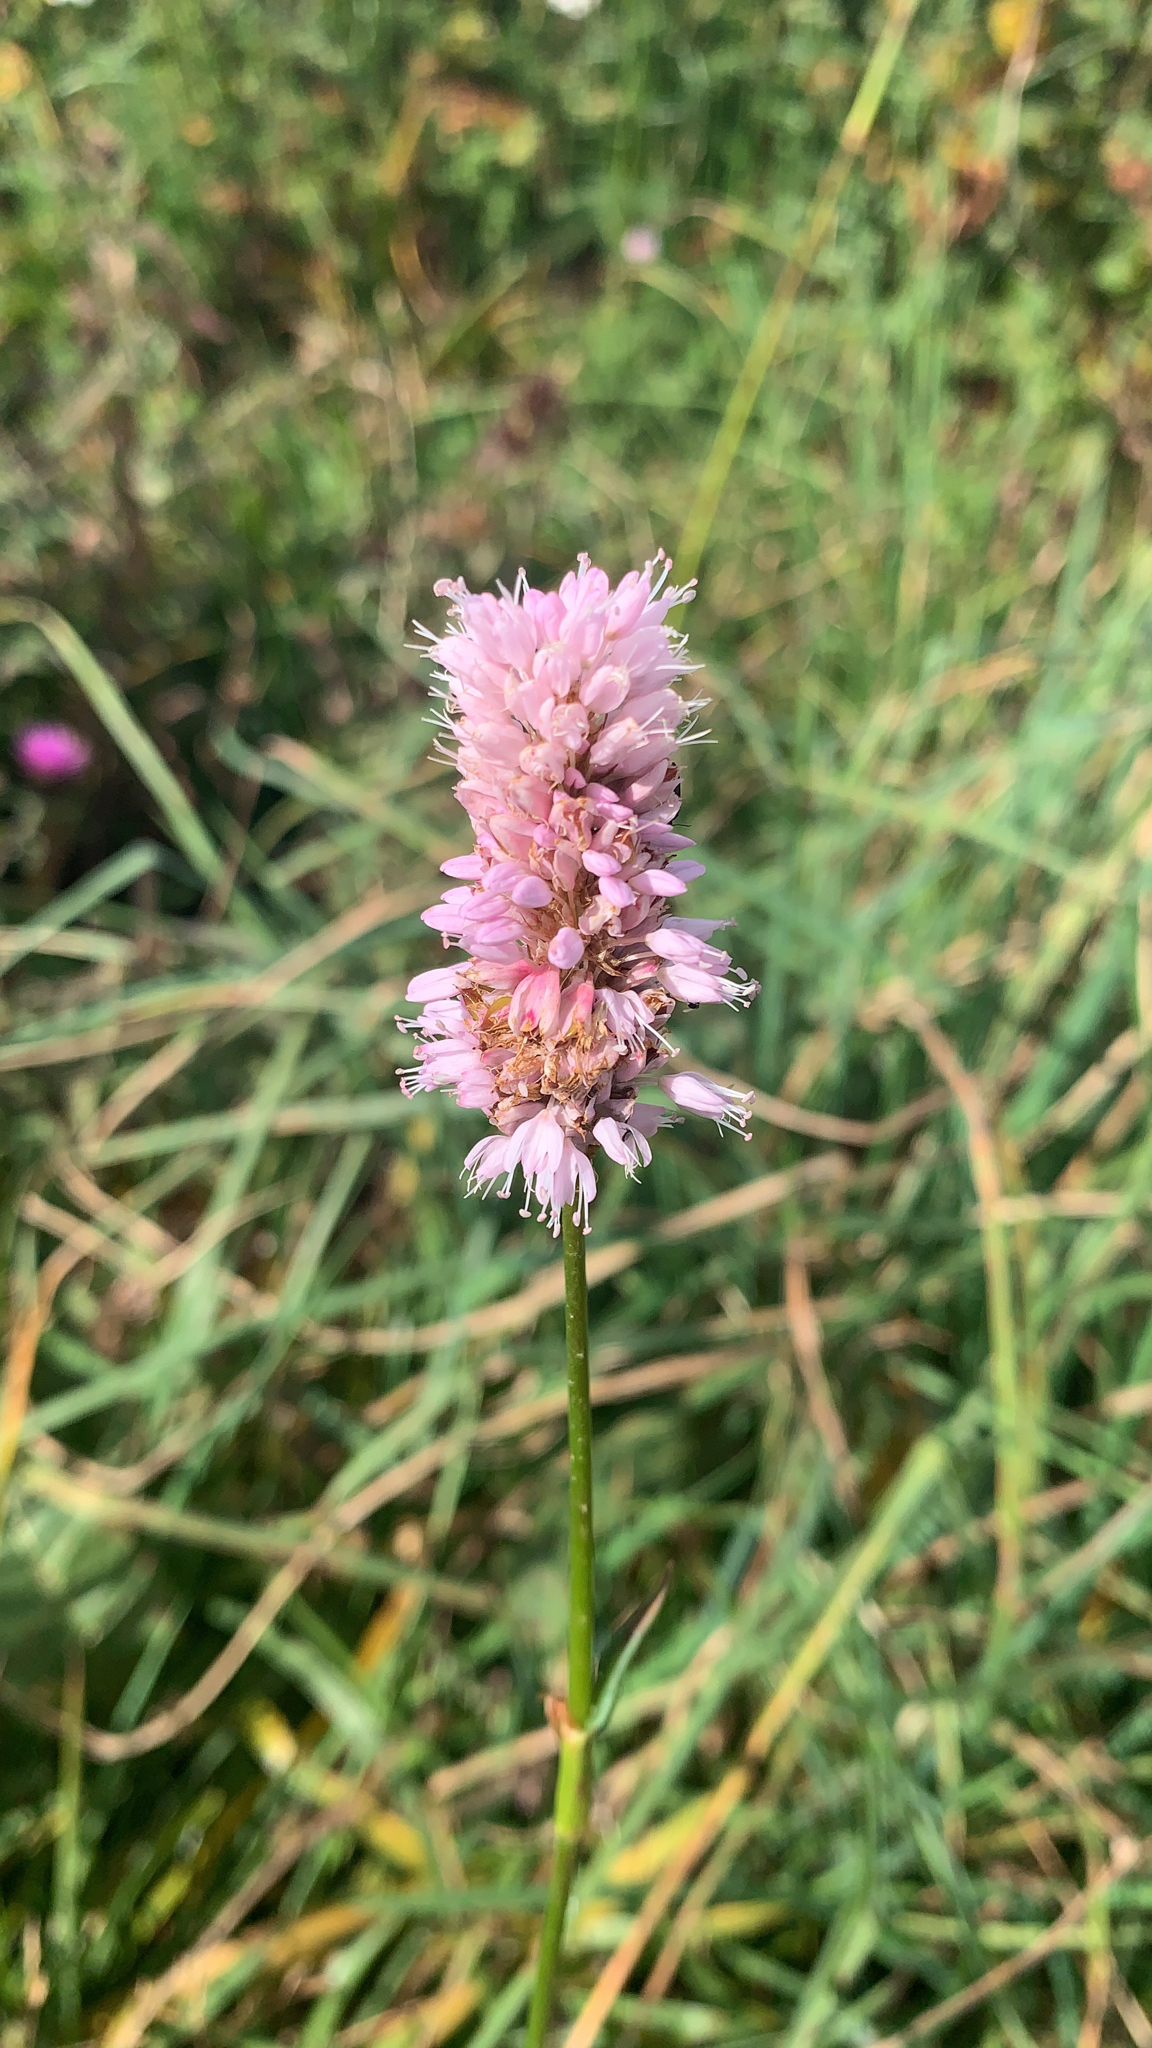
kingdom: Plantae
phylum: Tracheophyta
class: Magnoliopsida
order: Caryophyllales
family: Polygonaceae
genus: Bistorta
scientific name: Bistorta officinalis
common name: Common bistort
